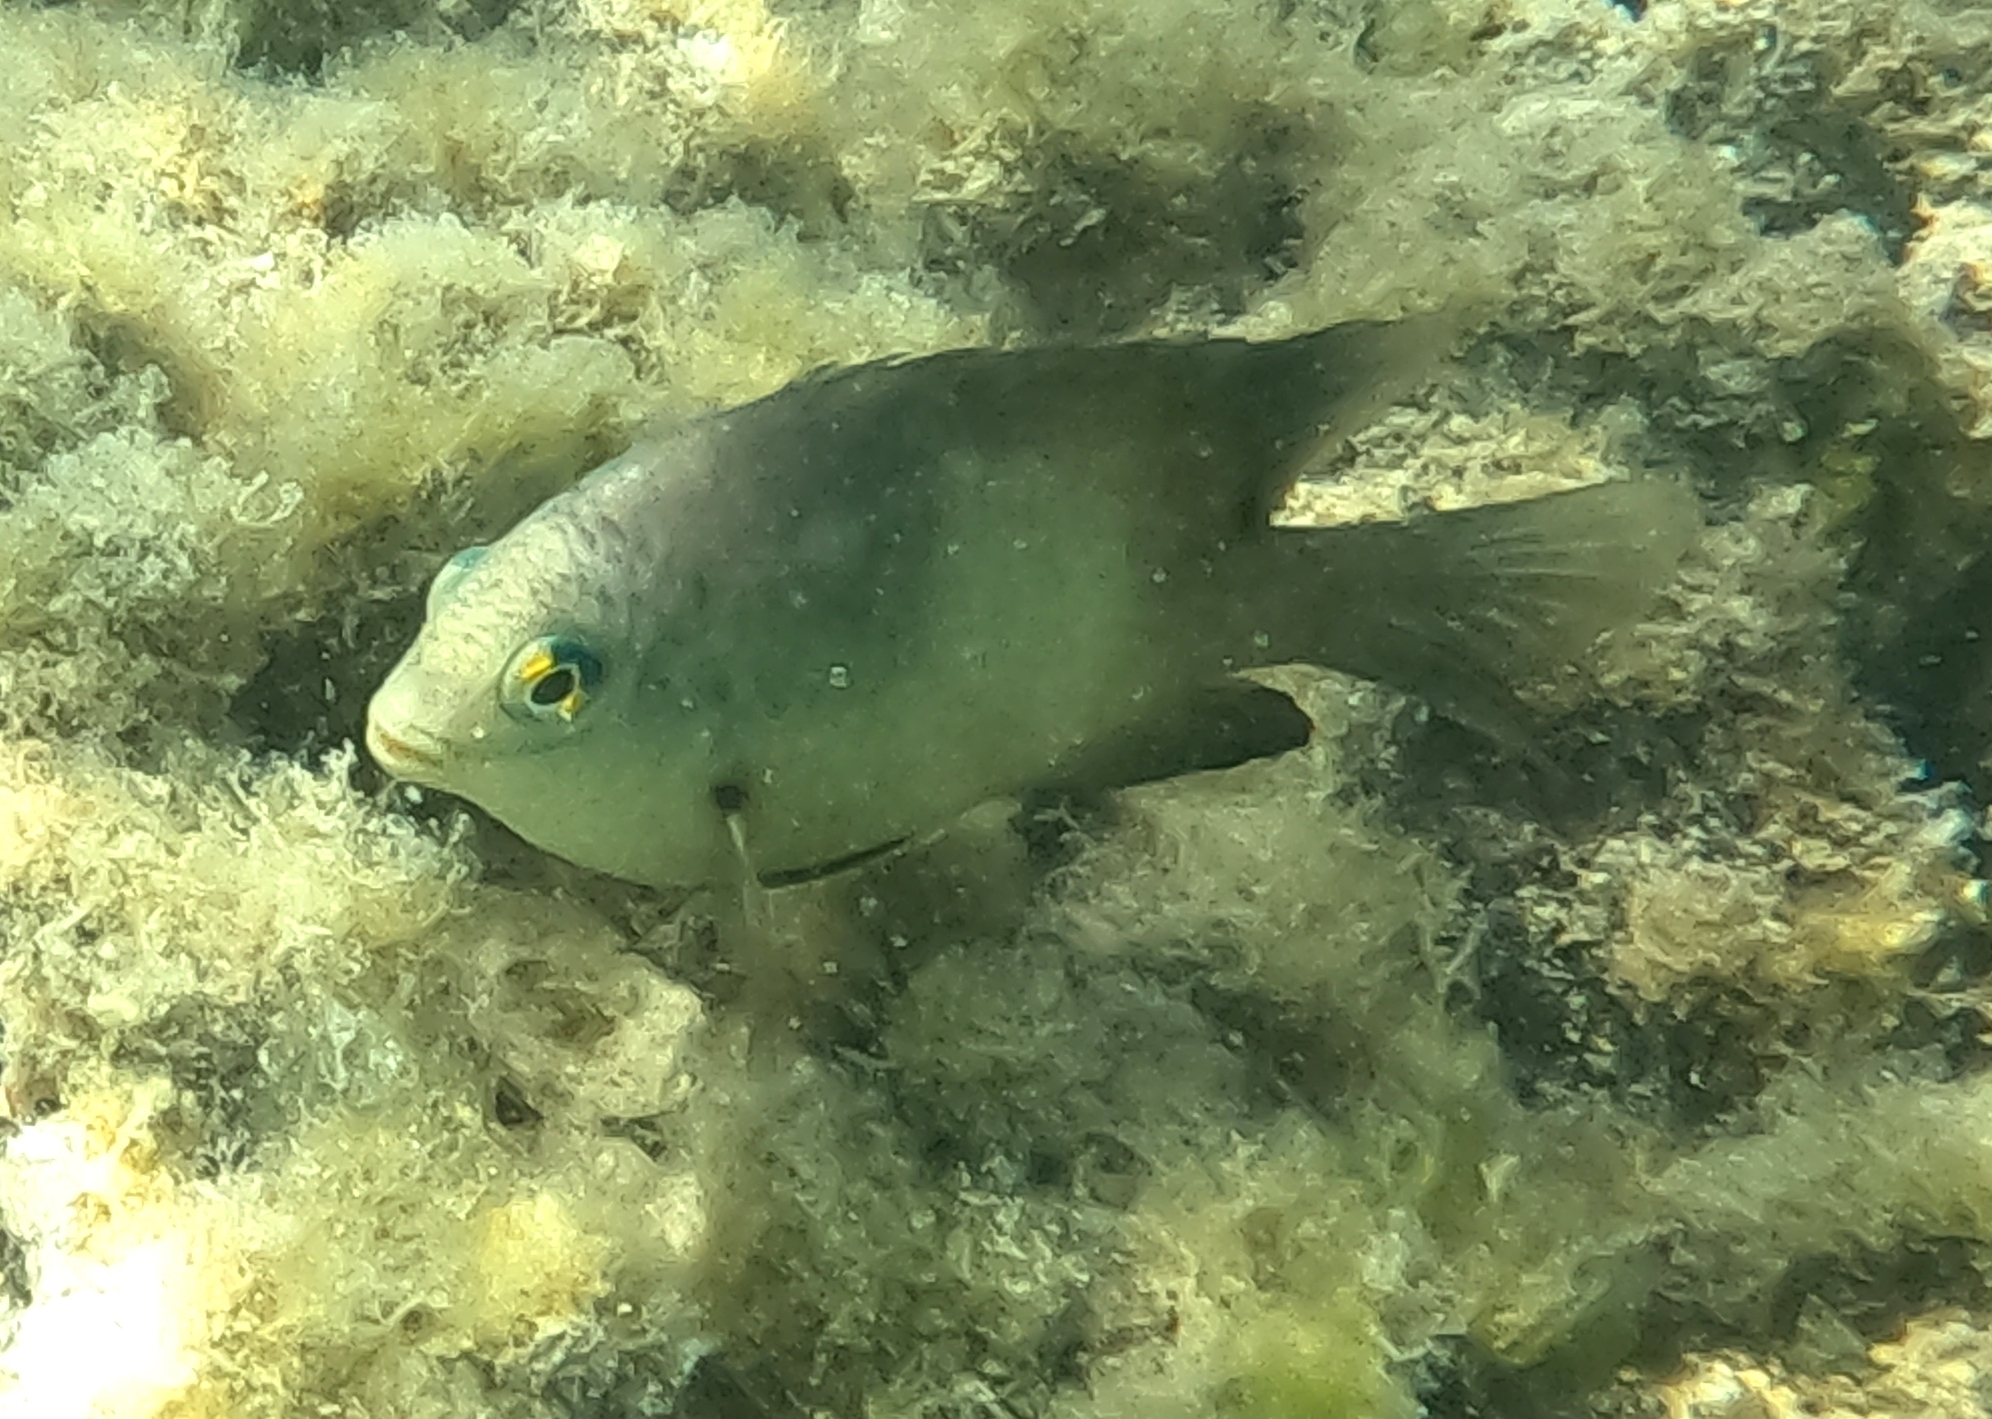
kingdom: Animalia
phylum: Chordata
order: Perciformes
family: Pomacentridae
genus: Stegastes
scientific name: Stegastes nigricans
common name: Dusky gregory
